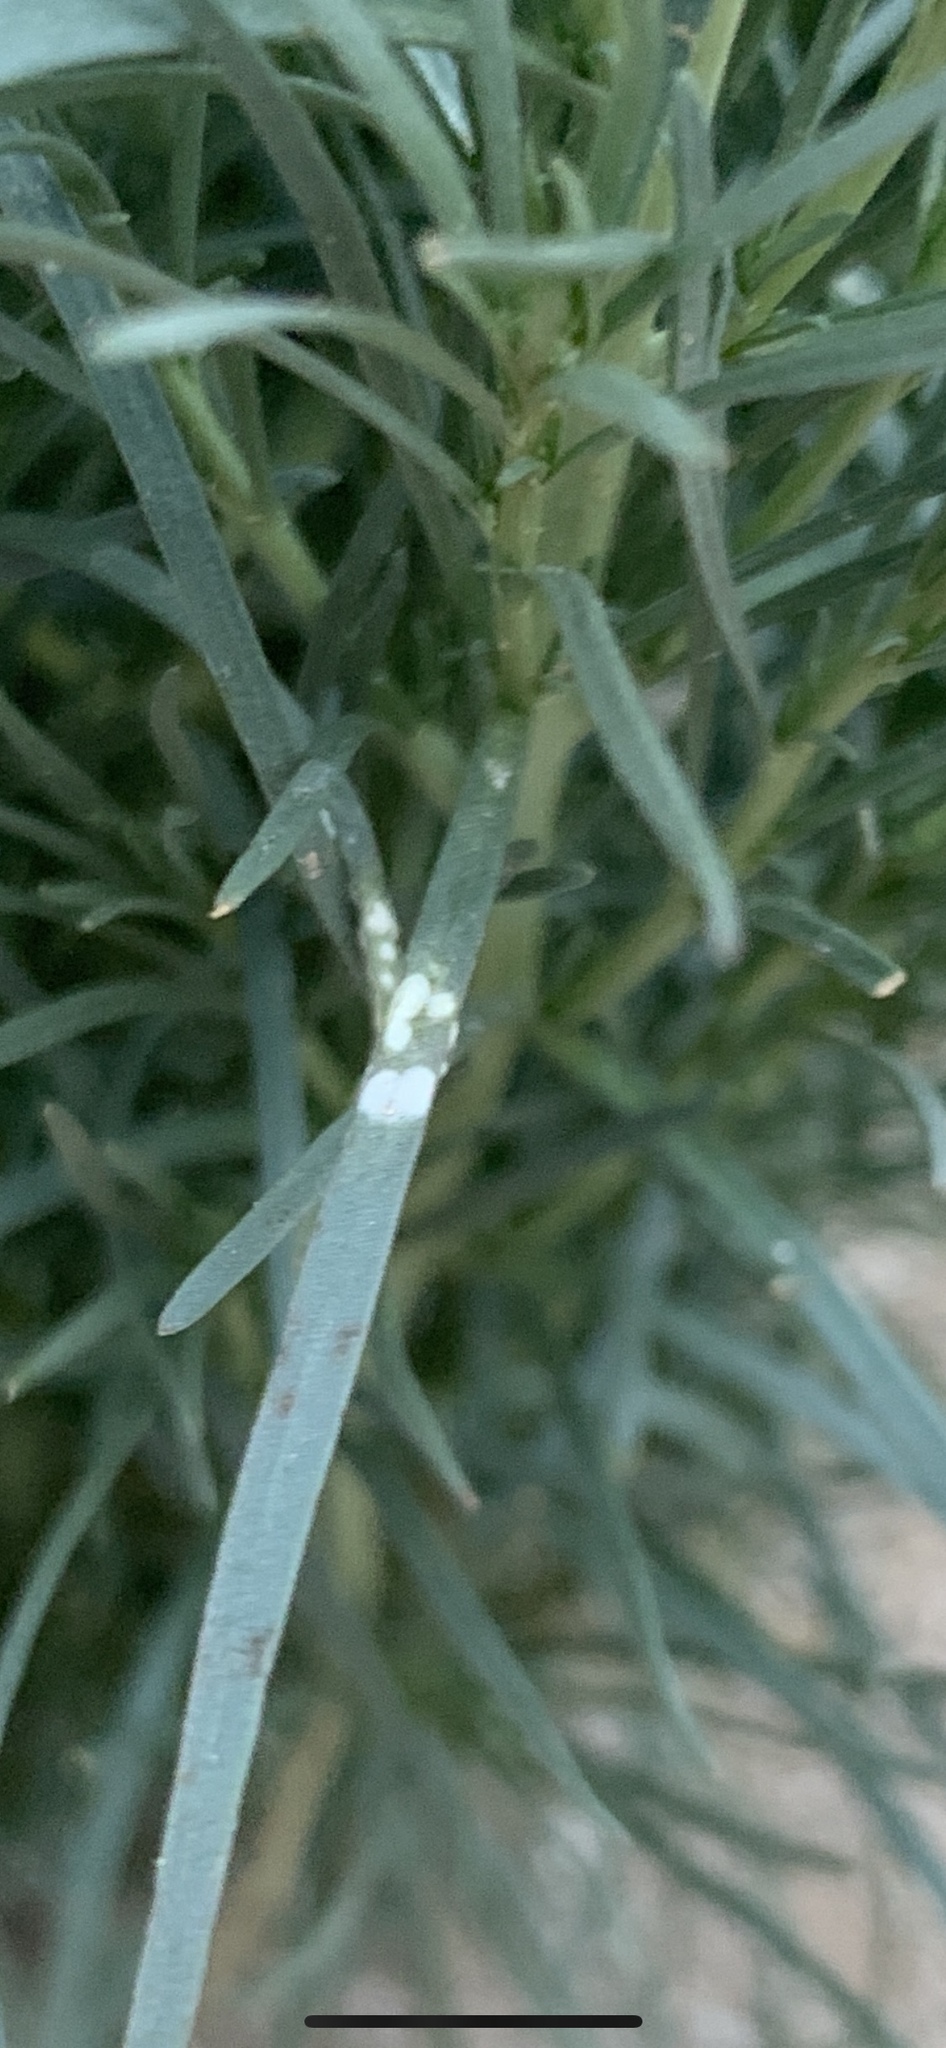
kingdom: Plantae
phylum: Tracheophyta
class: Magnoliopsida
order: Brassicales
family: Resedaceae
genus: Oligomeris
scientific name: Oligomeris linifolia
